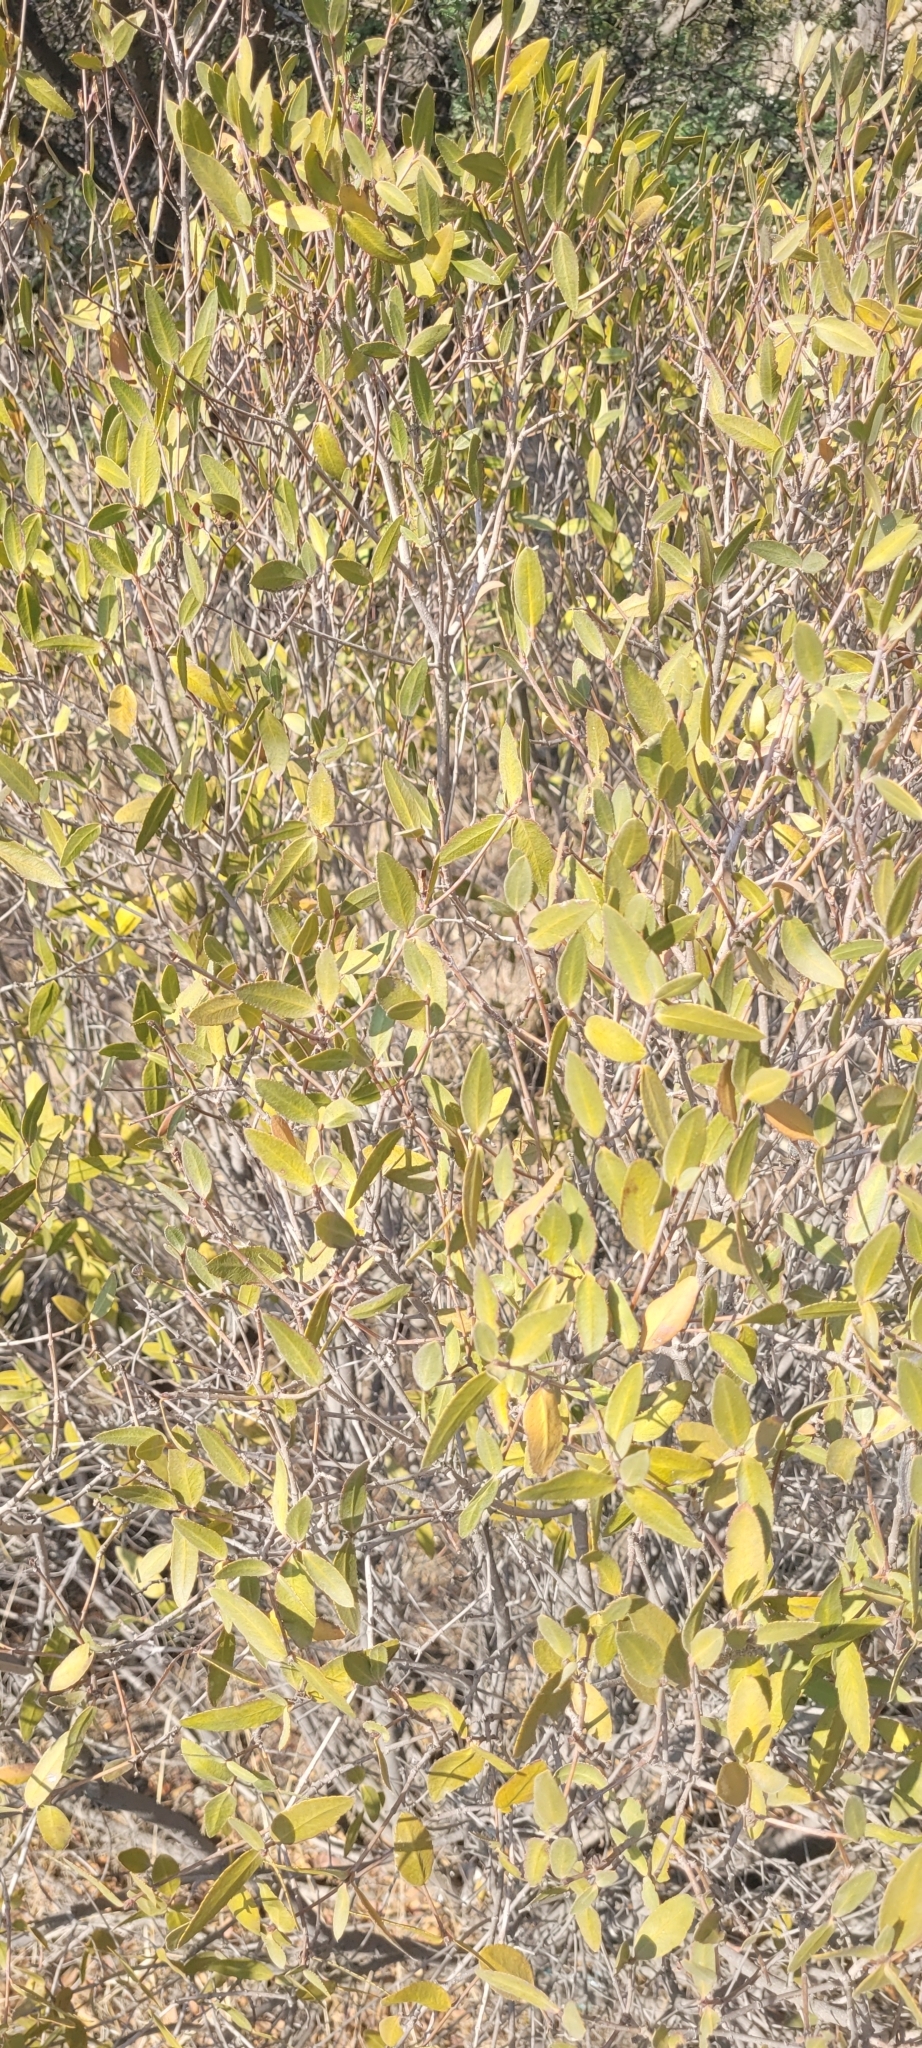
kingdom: Plantae
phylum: Tracheophyta
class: Magnoliopsida
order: Malpighiales
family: Euphorbiaceae
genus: Colliguaja
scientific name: Colliguaja odorifera
